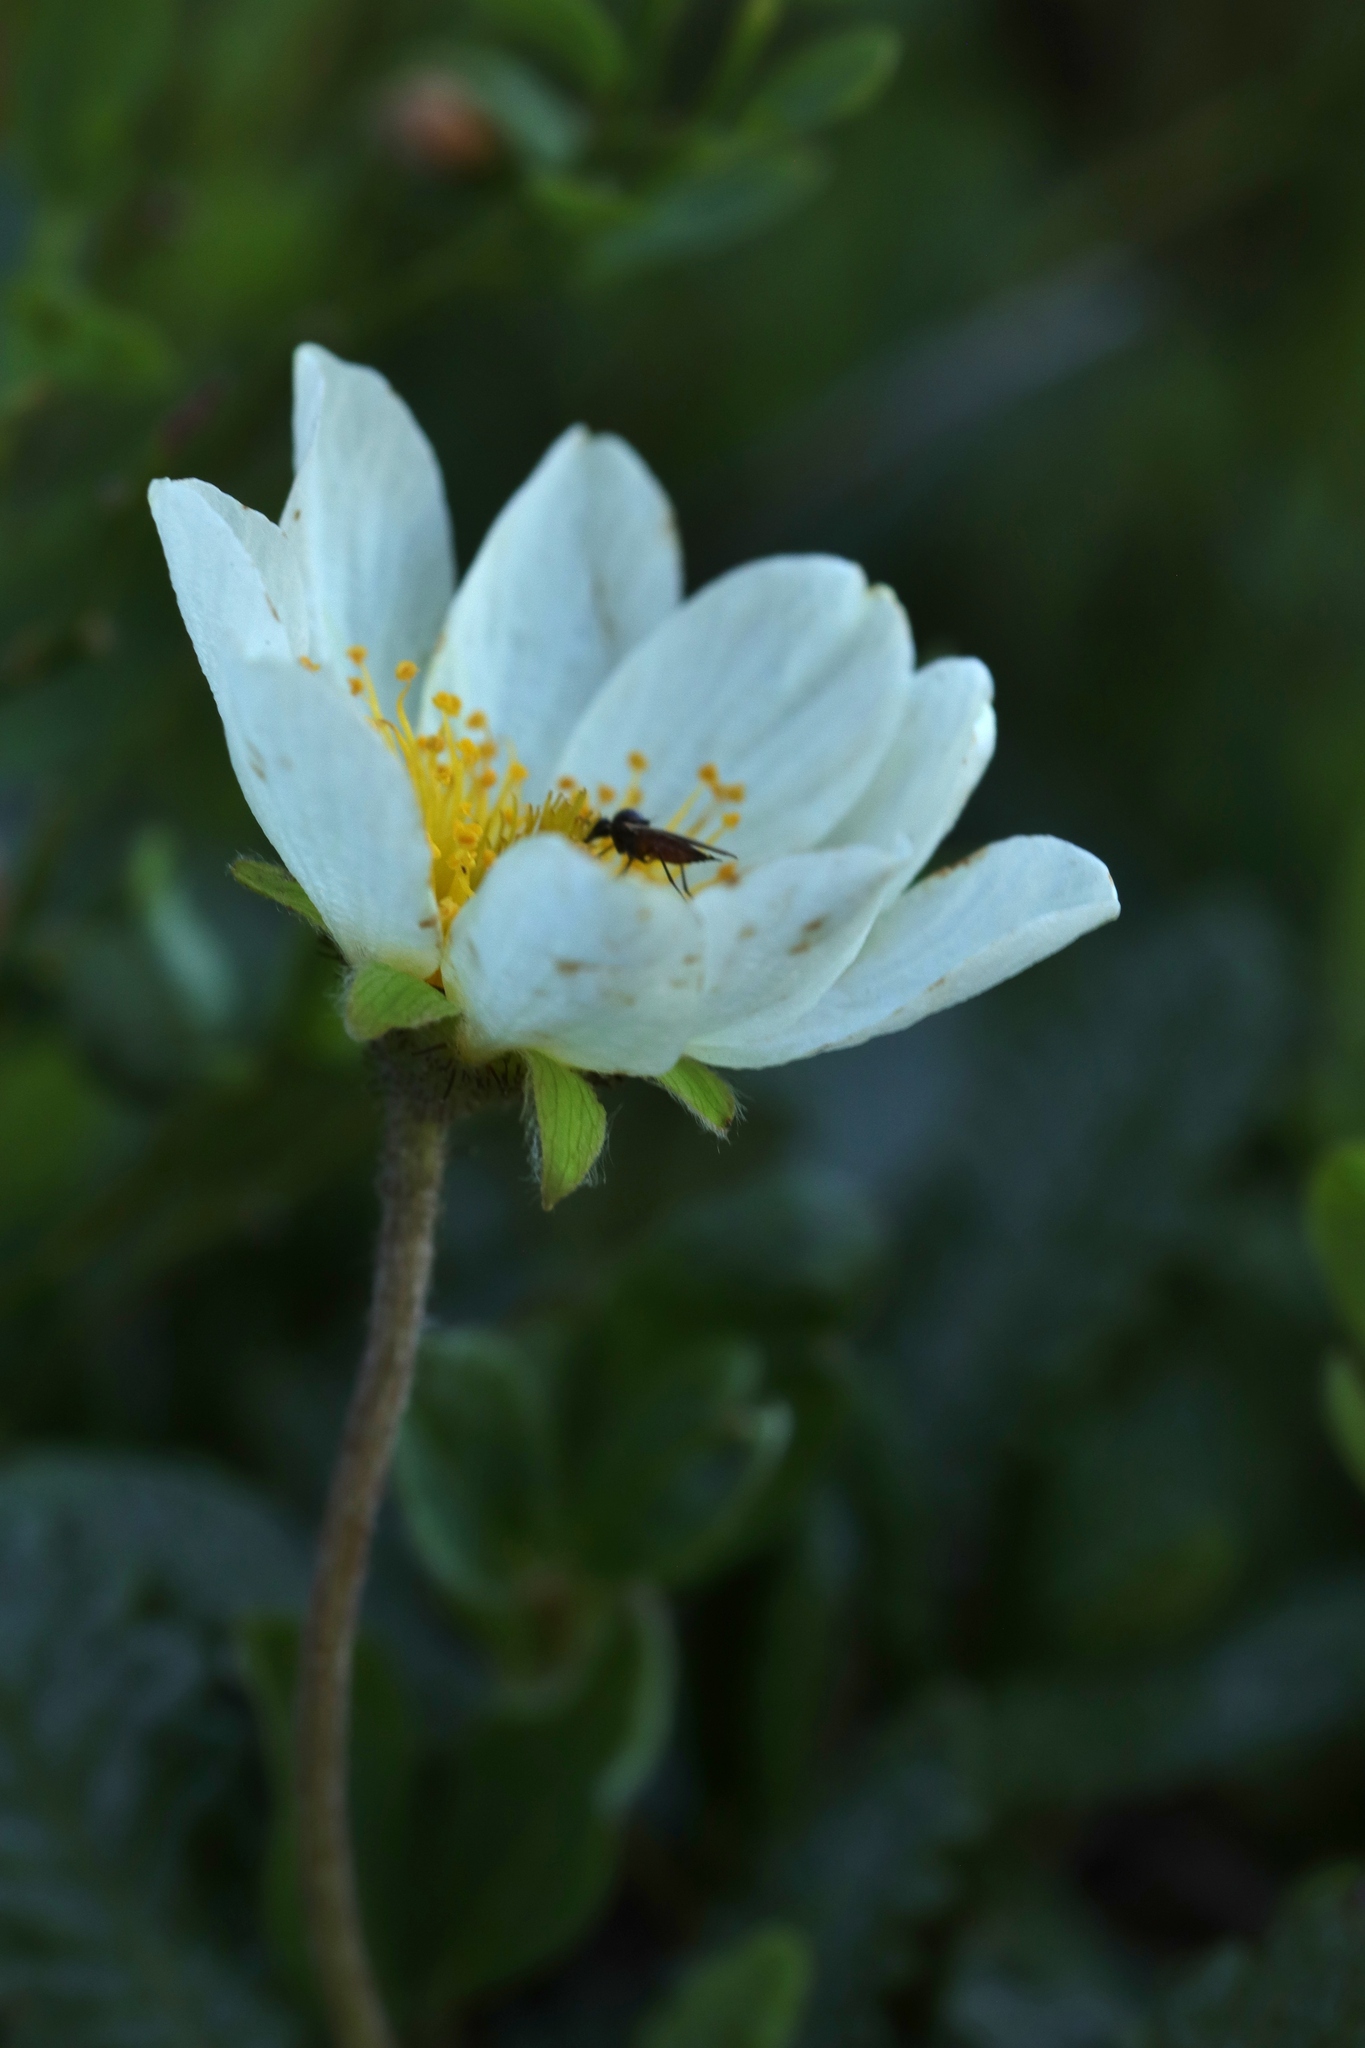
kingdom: Plantae
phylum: Tracheophyta
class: Magnoliopsida
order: Rosales
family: Rosaceae
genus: Dryas
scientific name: Dryas octopetala
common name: Eight-petal mountain-avens
